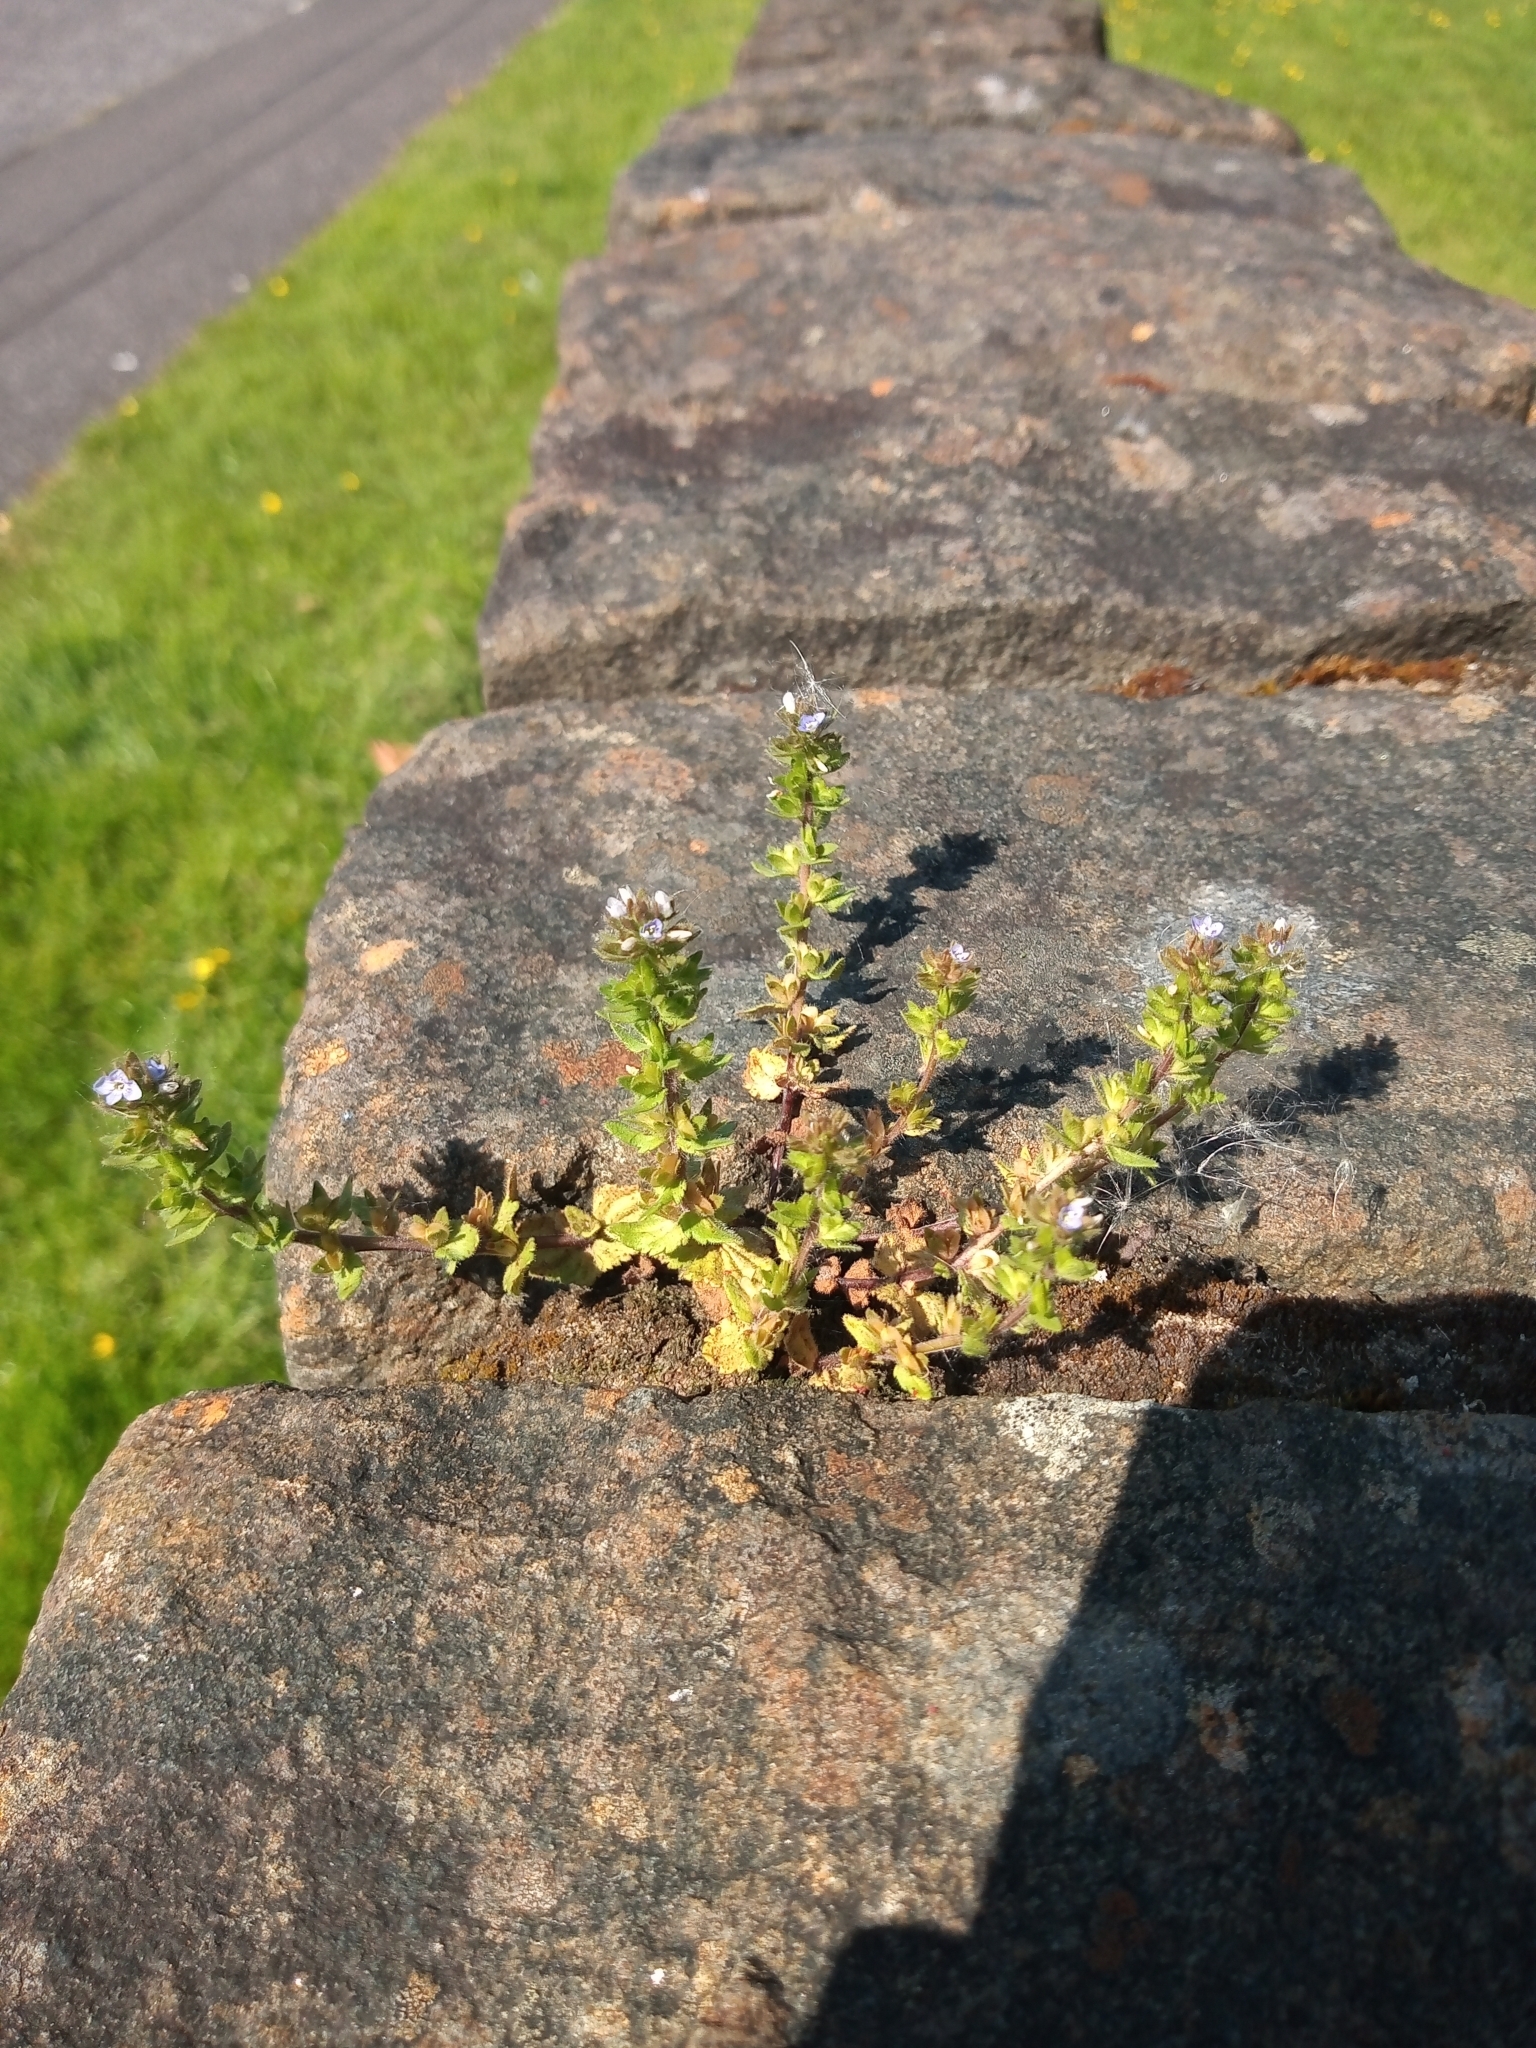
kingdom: Plantae
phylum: Tracheophyta
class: Magnoliopsida
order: Lamiales
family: Plantaginaceae
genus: Veronica
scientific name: Veronica arvensis
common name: Corn speedwell
